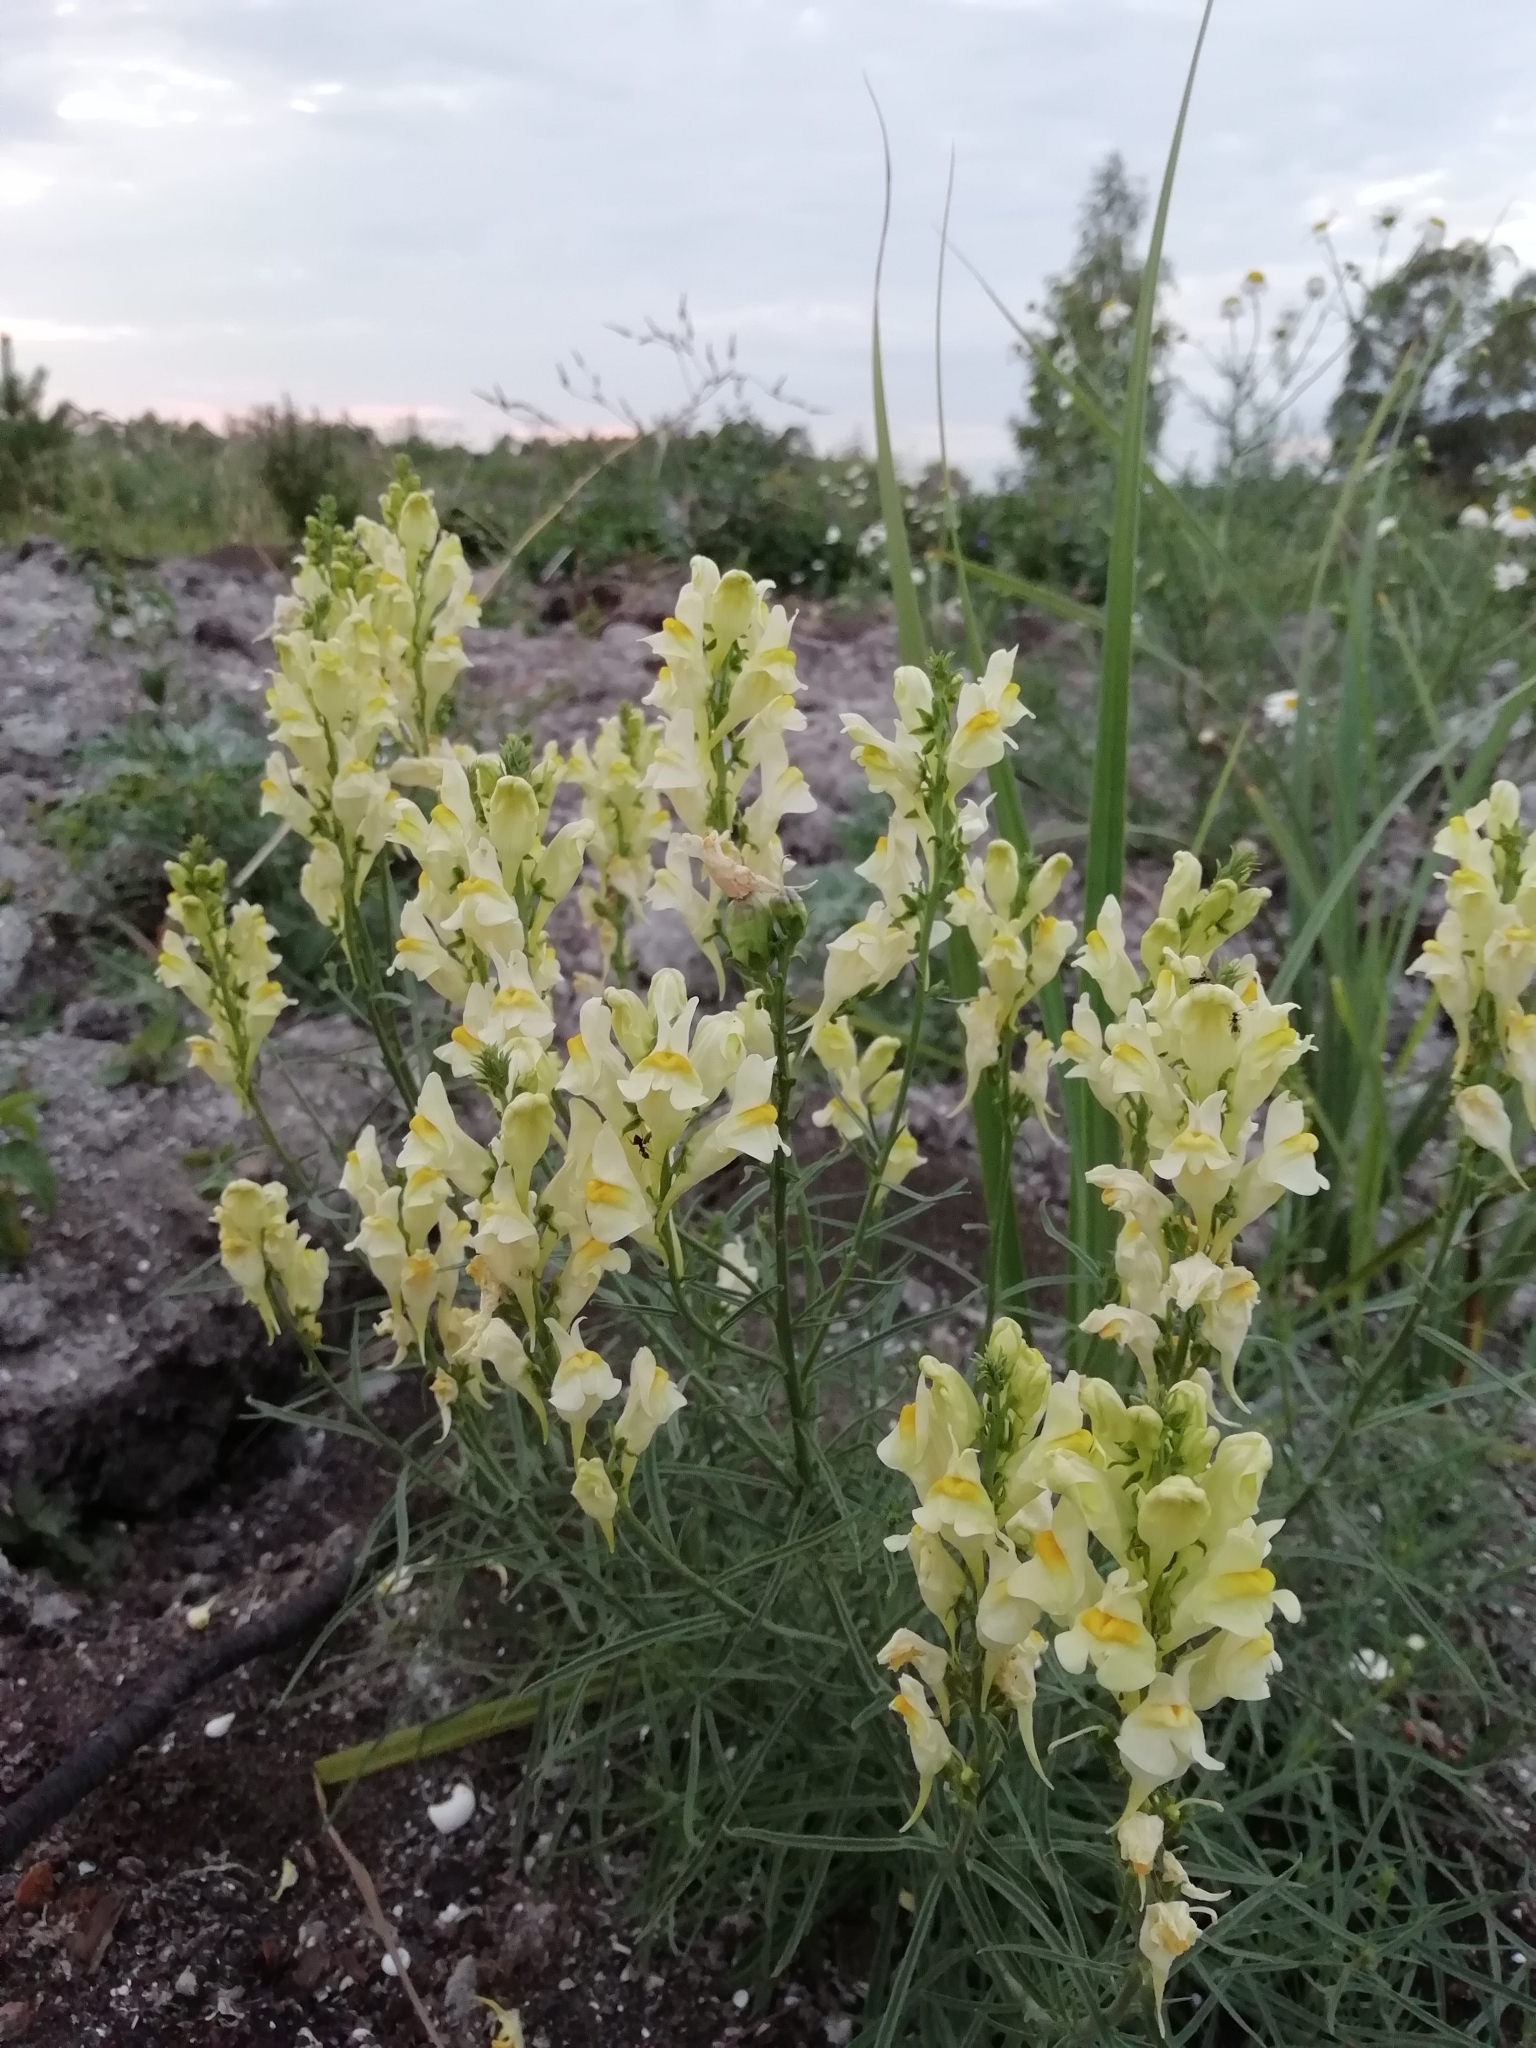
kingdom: Plantae
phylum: Tracheophyta
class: Magnoliopsida
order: Lamiales
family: Plantaginaceae
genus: Linaria
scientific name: Linaria vulgaris
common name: Butter and eggs
